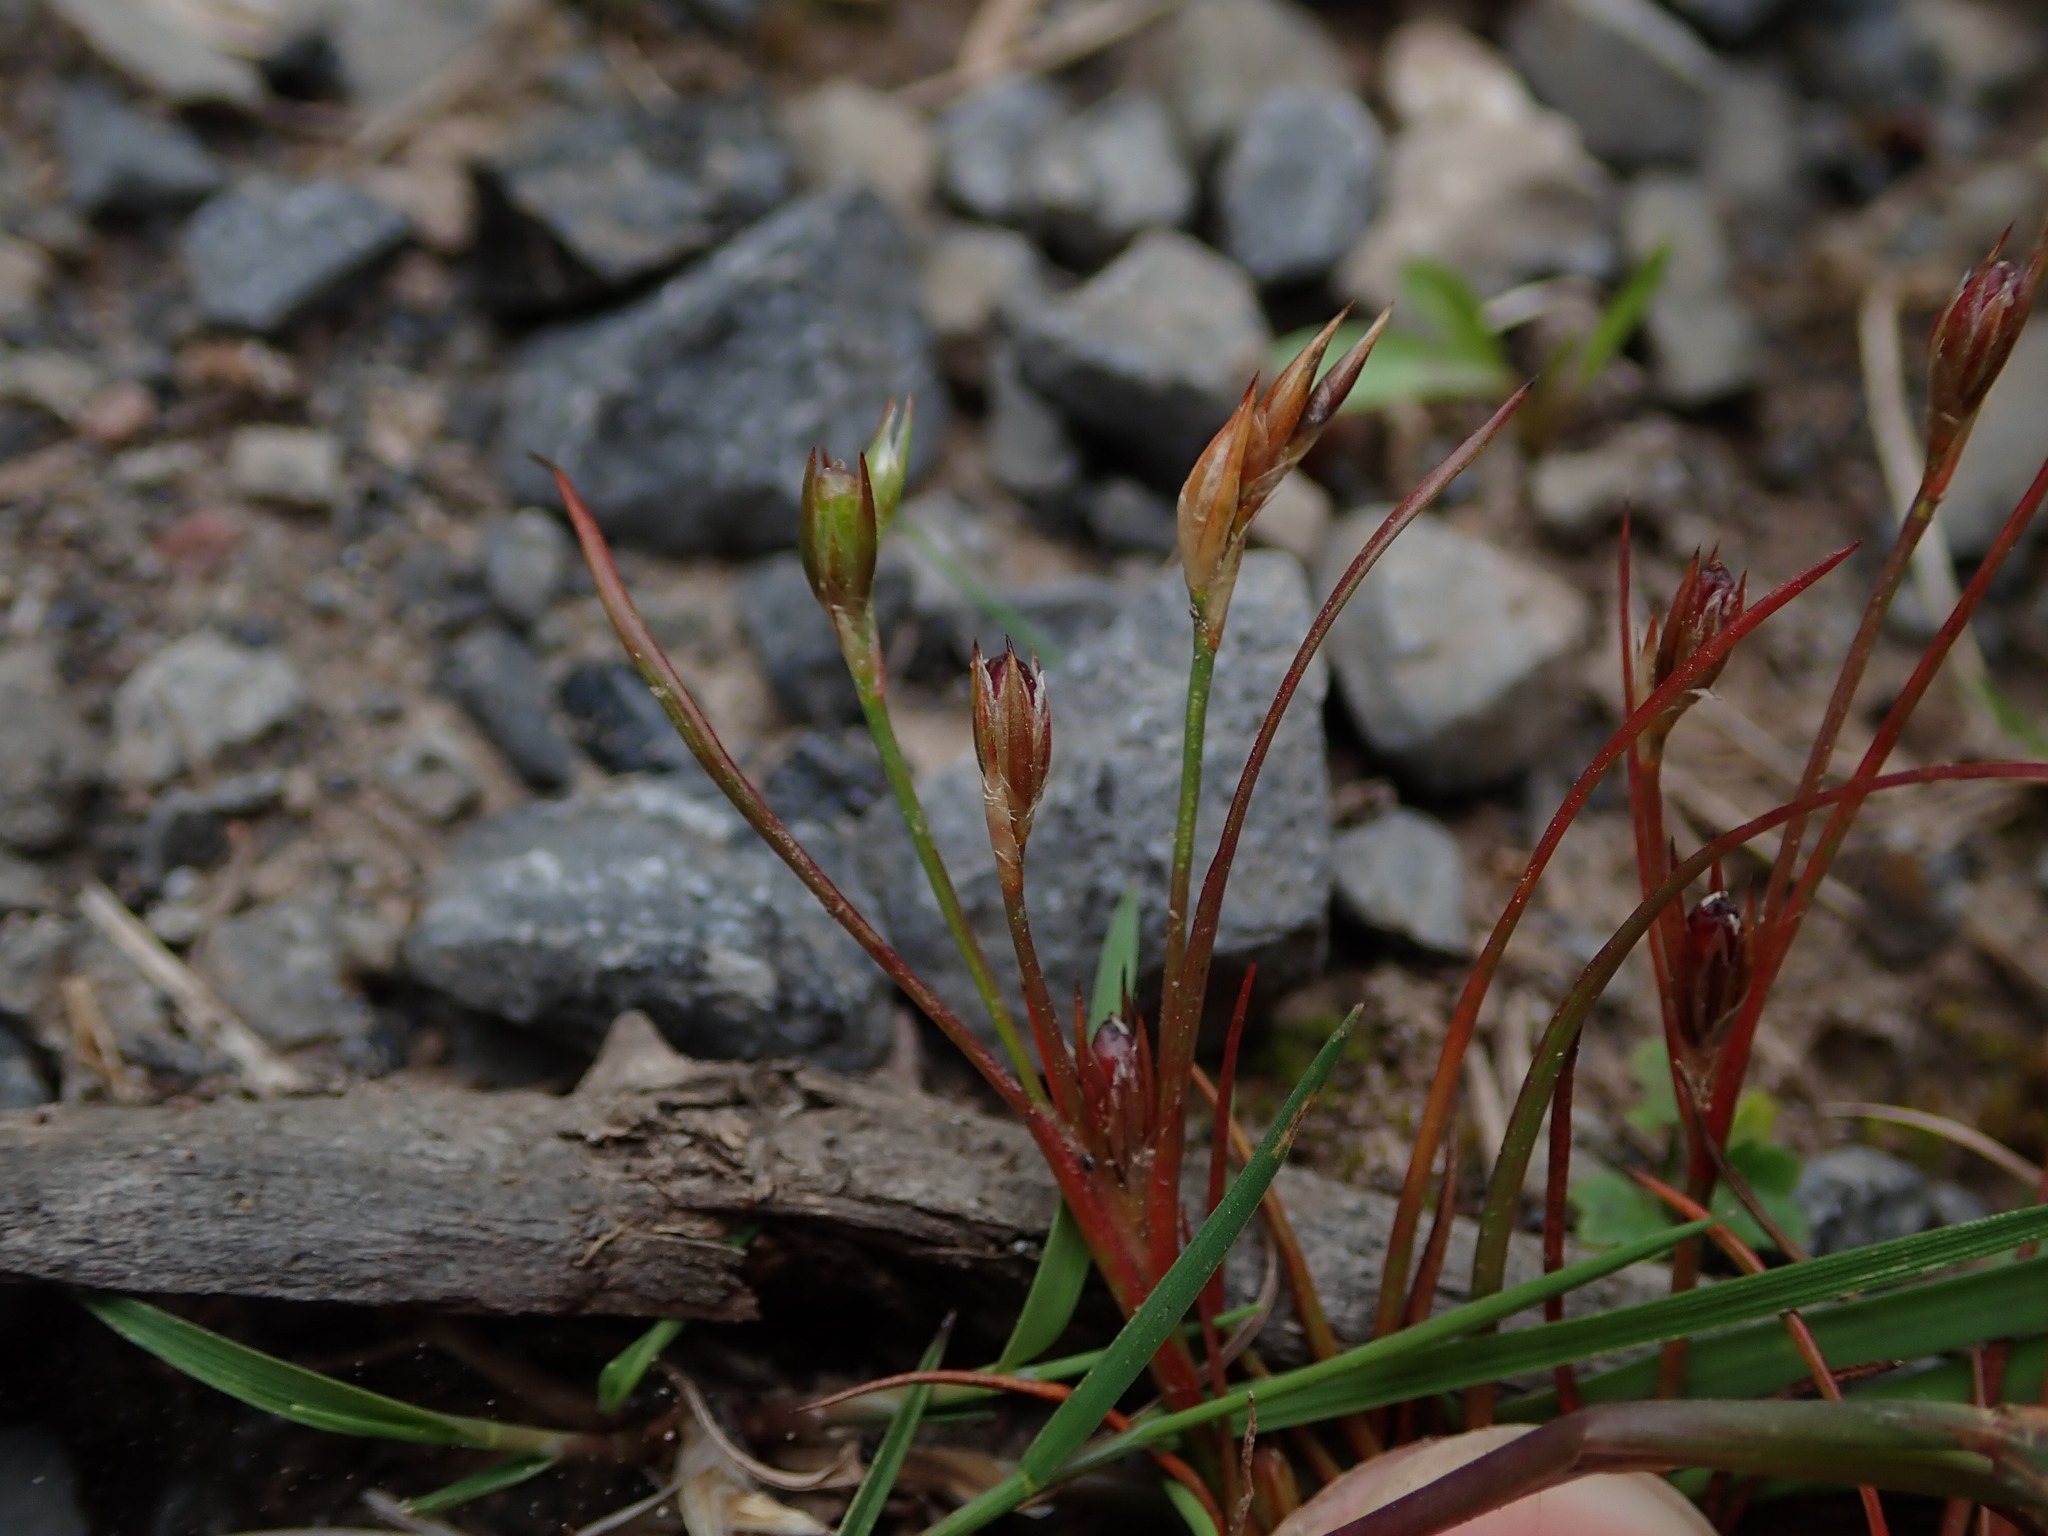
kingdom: Plantae
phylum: Tracheophyta
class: Liliopsida
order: Poales
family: Juncaceae
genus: Juncus
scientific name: Juncus bufonius
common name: Toad rush
